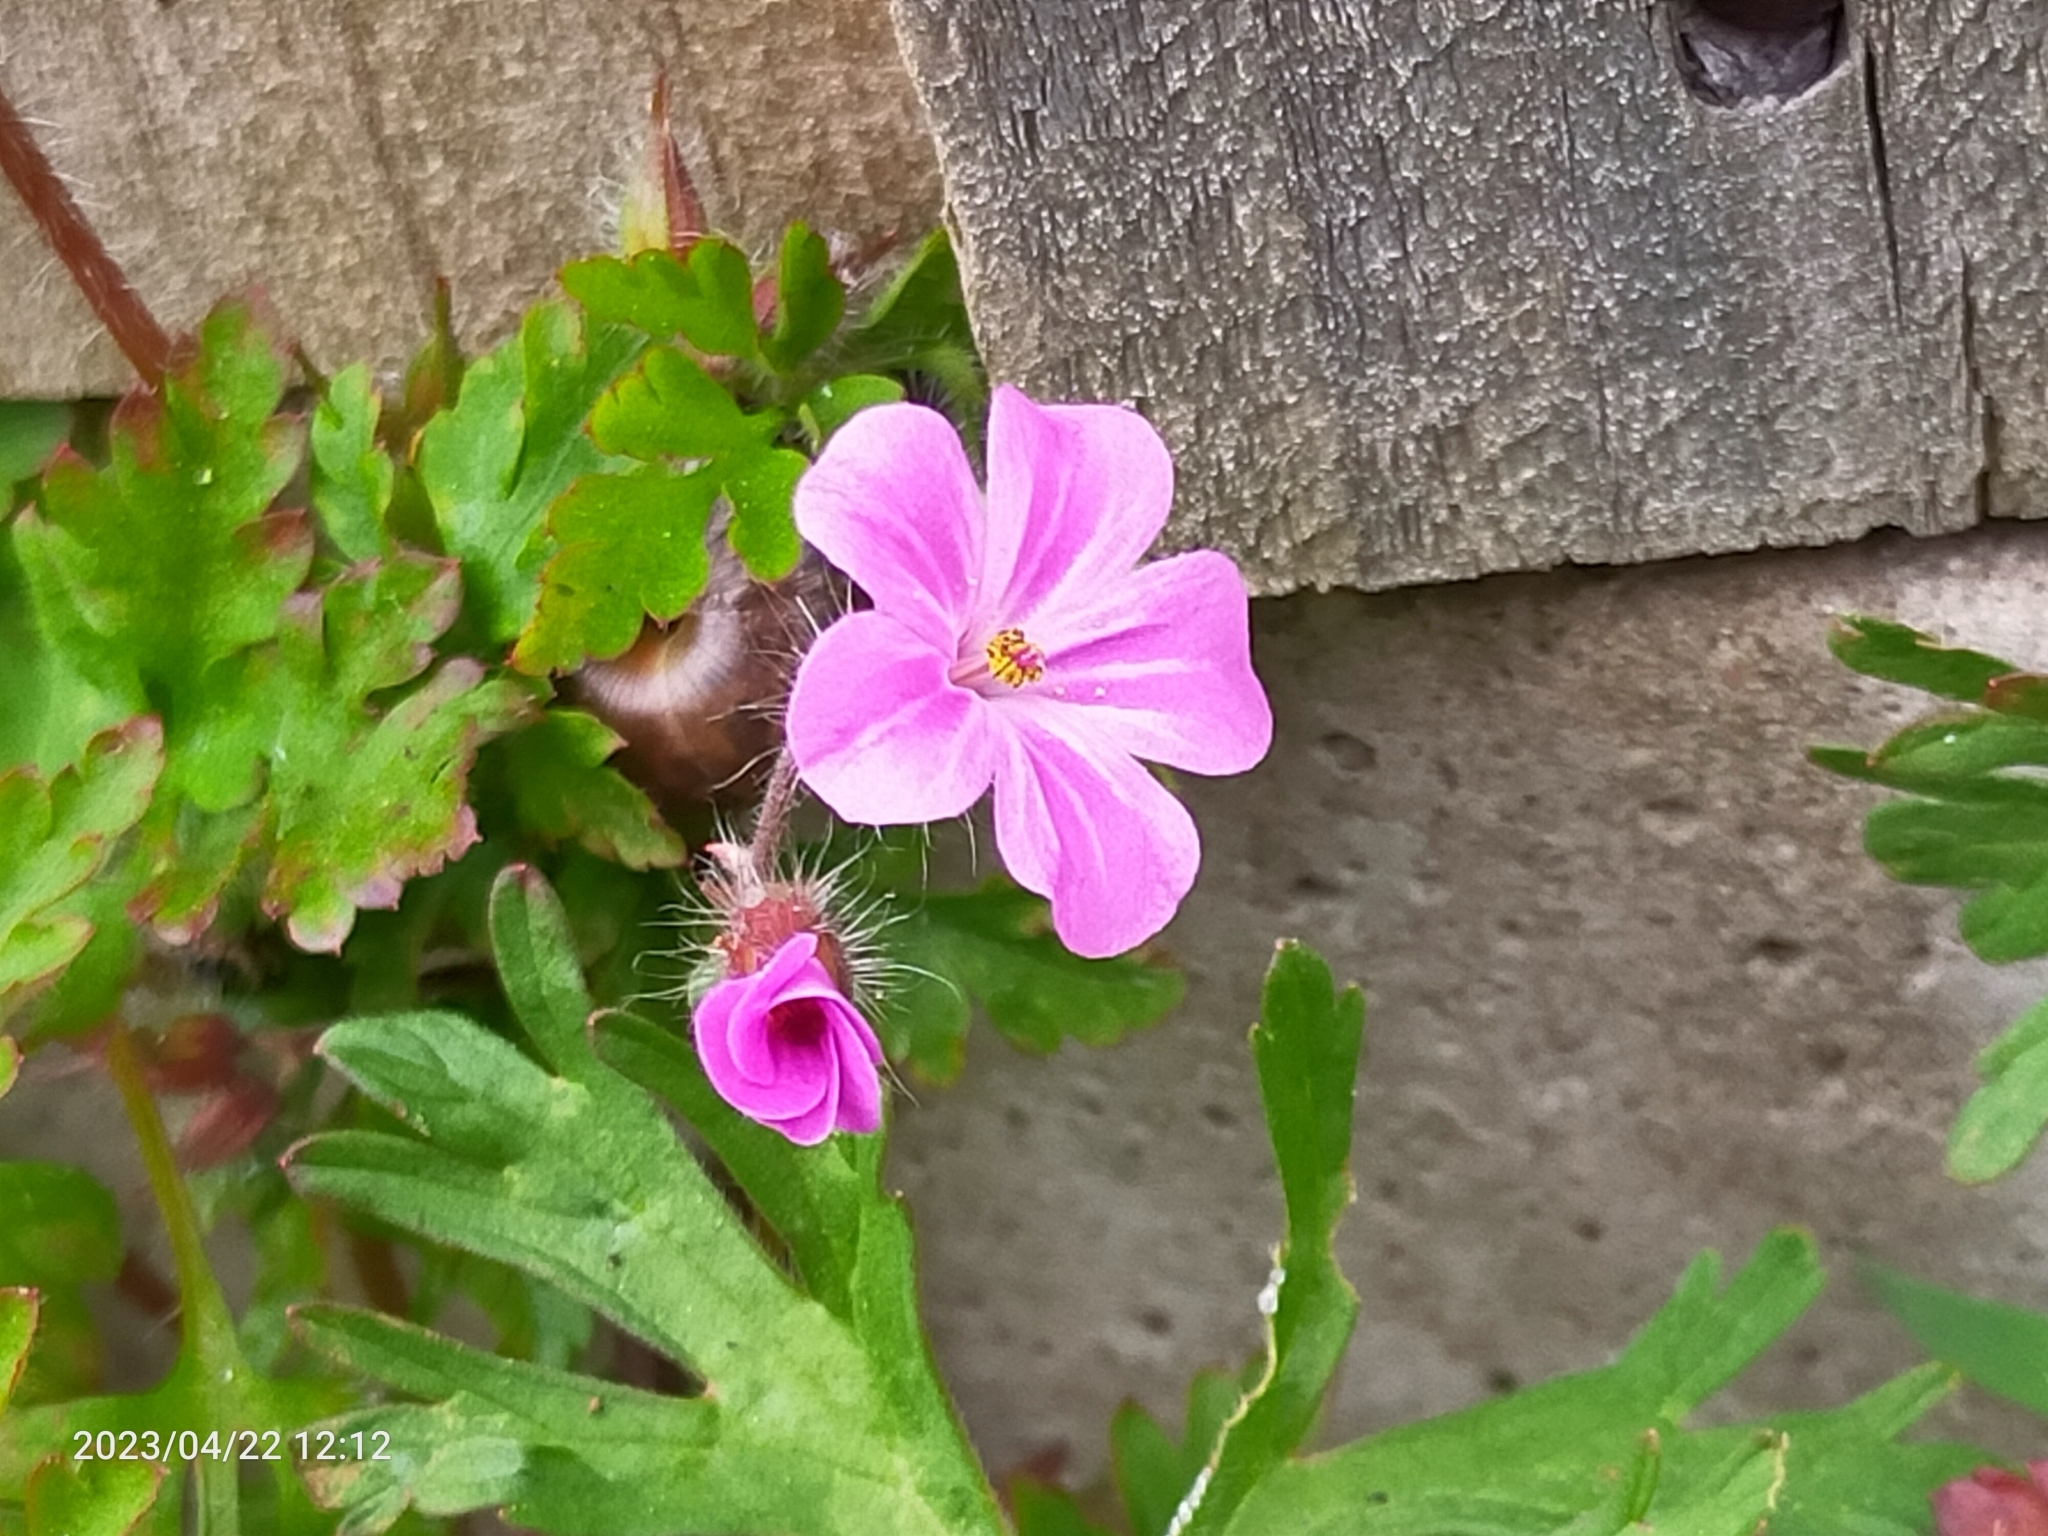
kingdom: Plantae
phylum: Tracheophyta
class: Magnoliopsida
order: Geraniales
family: Geraniaceae
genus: Geranium
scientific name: Geranium robertianum
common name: Herb-robert
